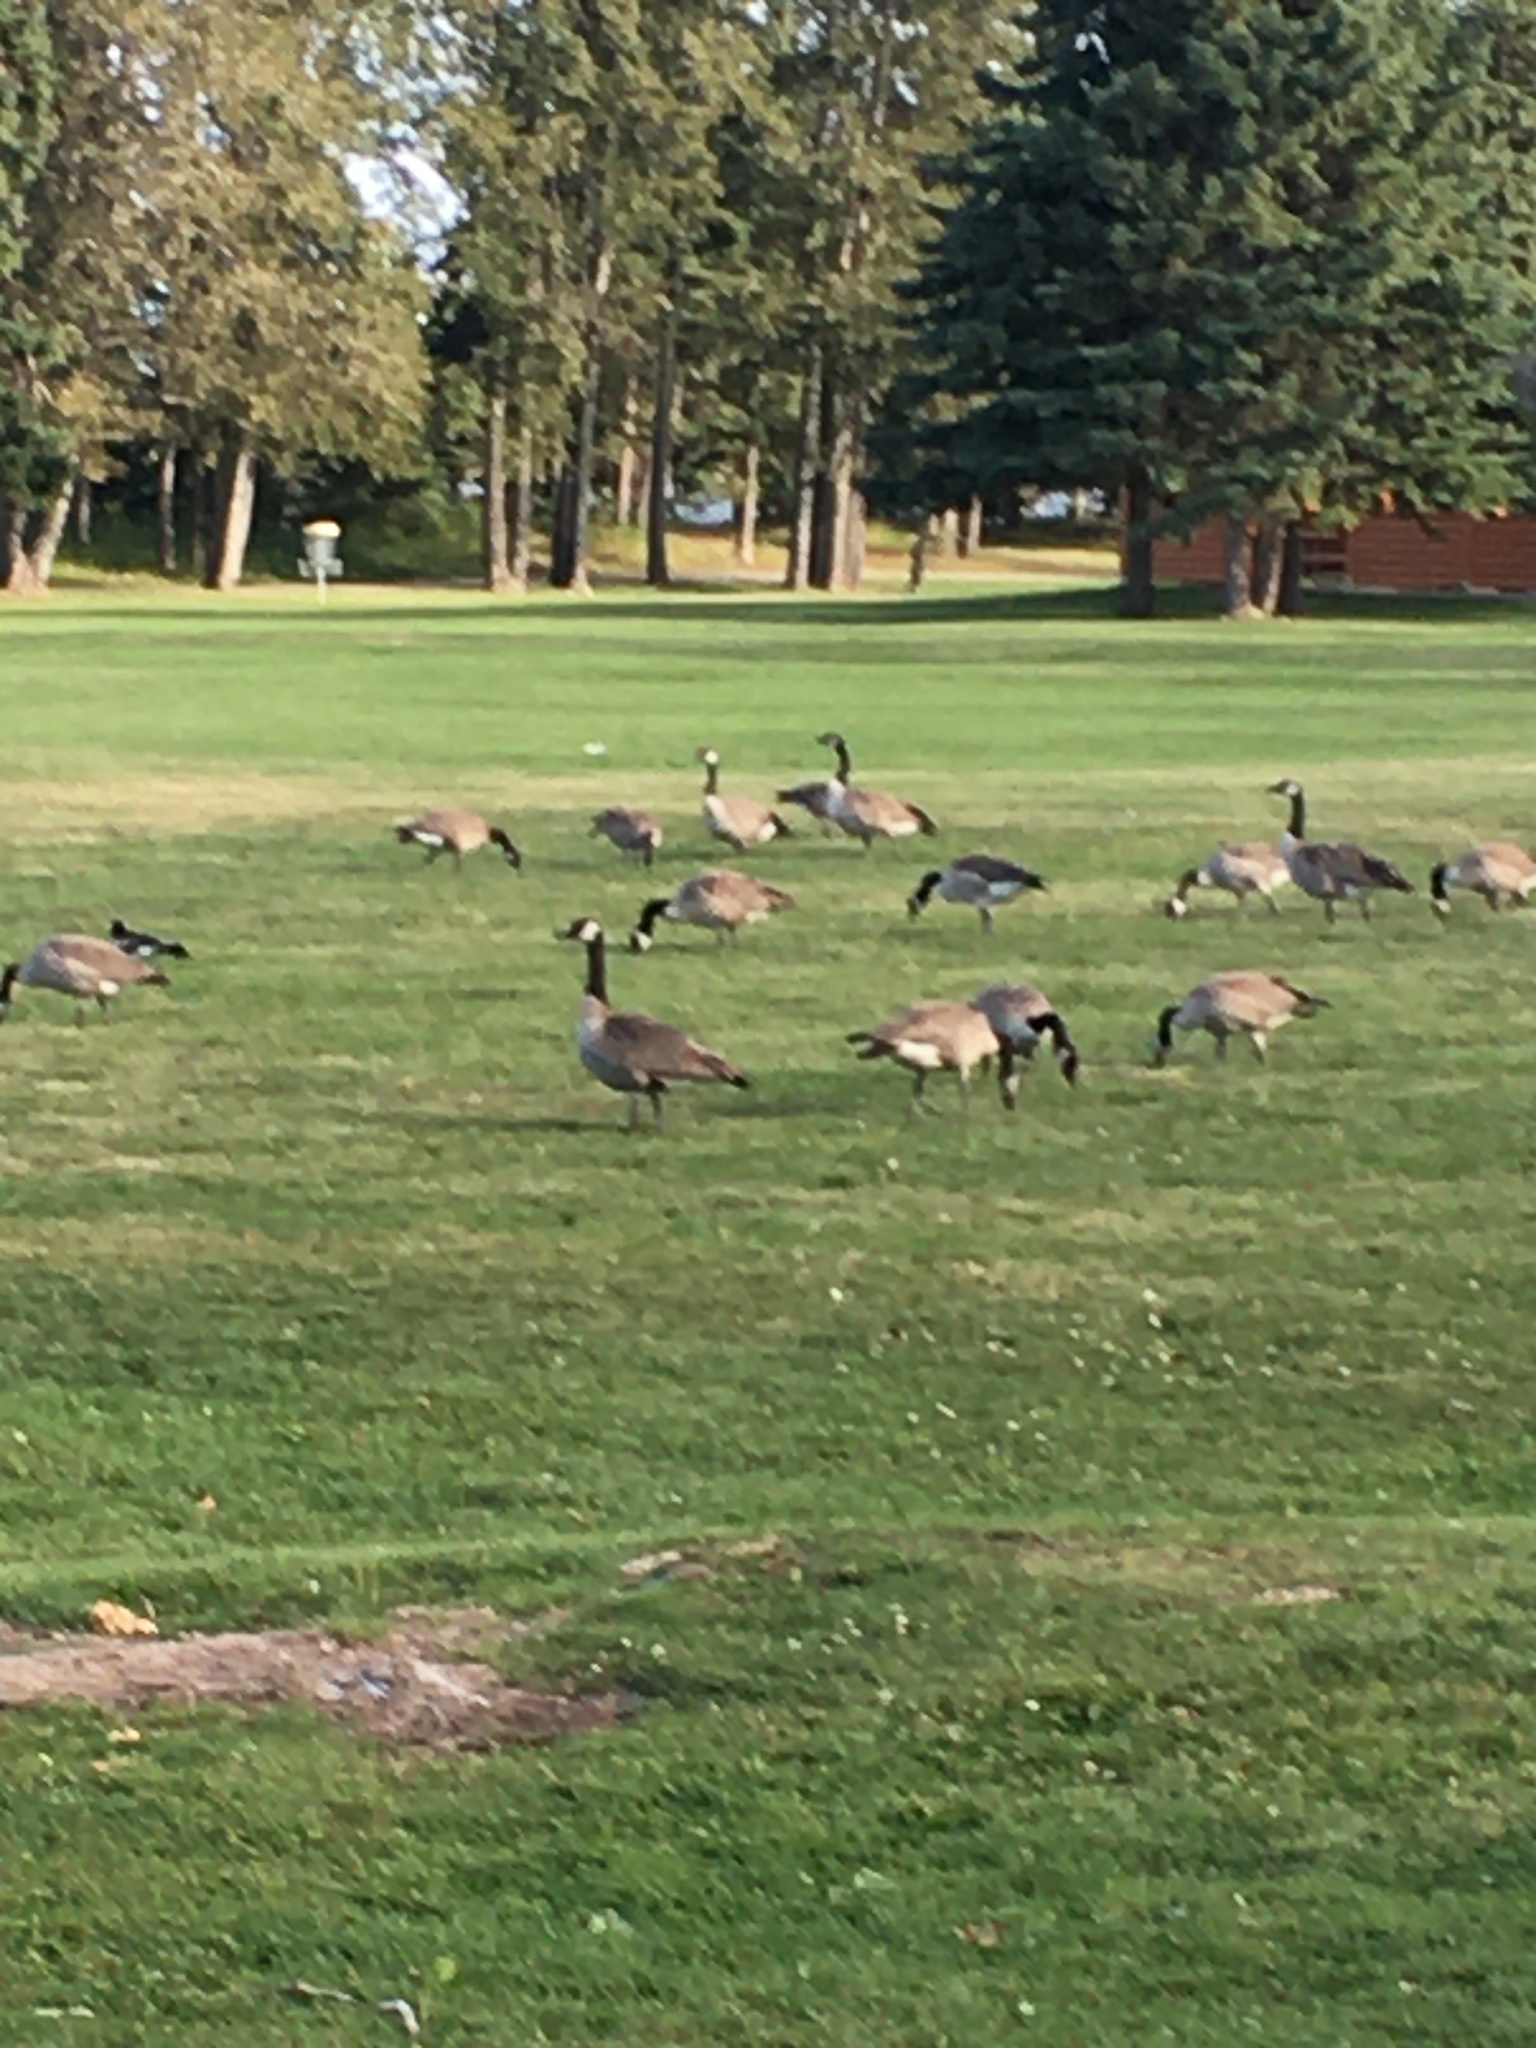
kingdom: Animalia
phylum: Chordata
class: Aves
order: Anseriformes
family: Anatidae
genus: Branta
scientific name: Branta canadensis
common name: Canada goose
